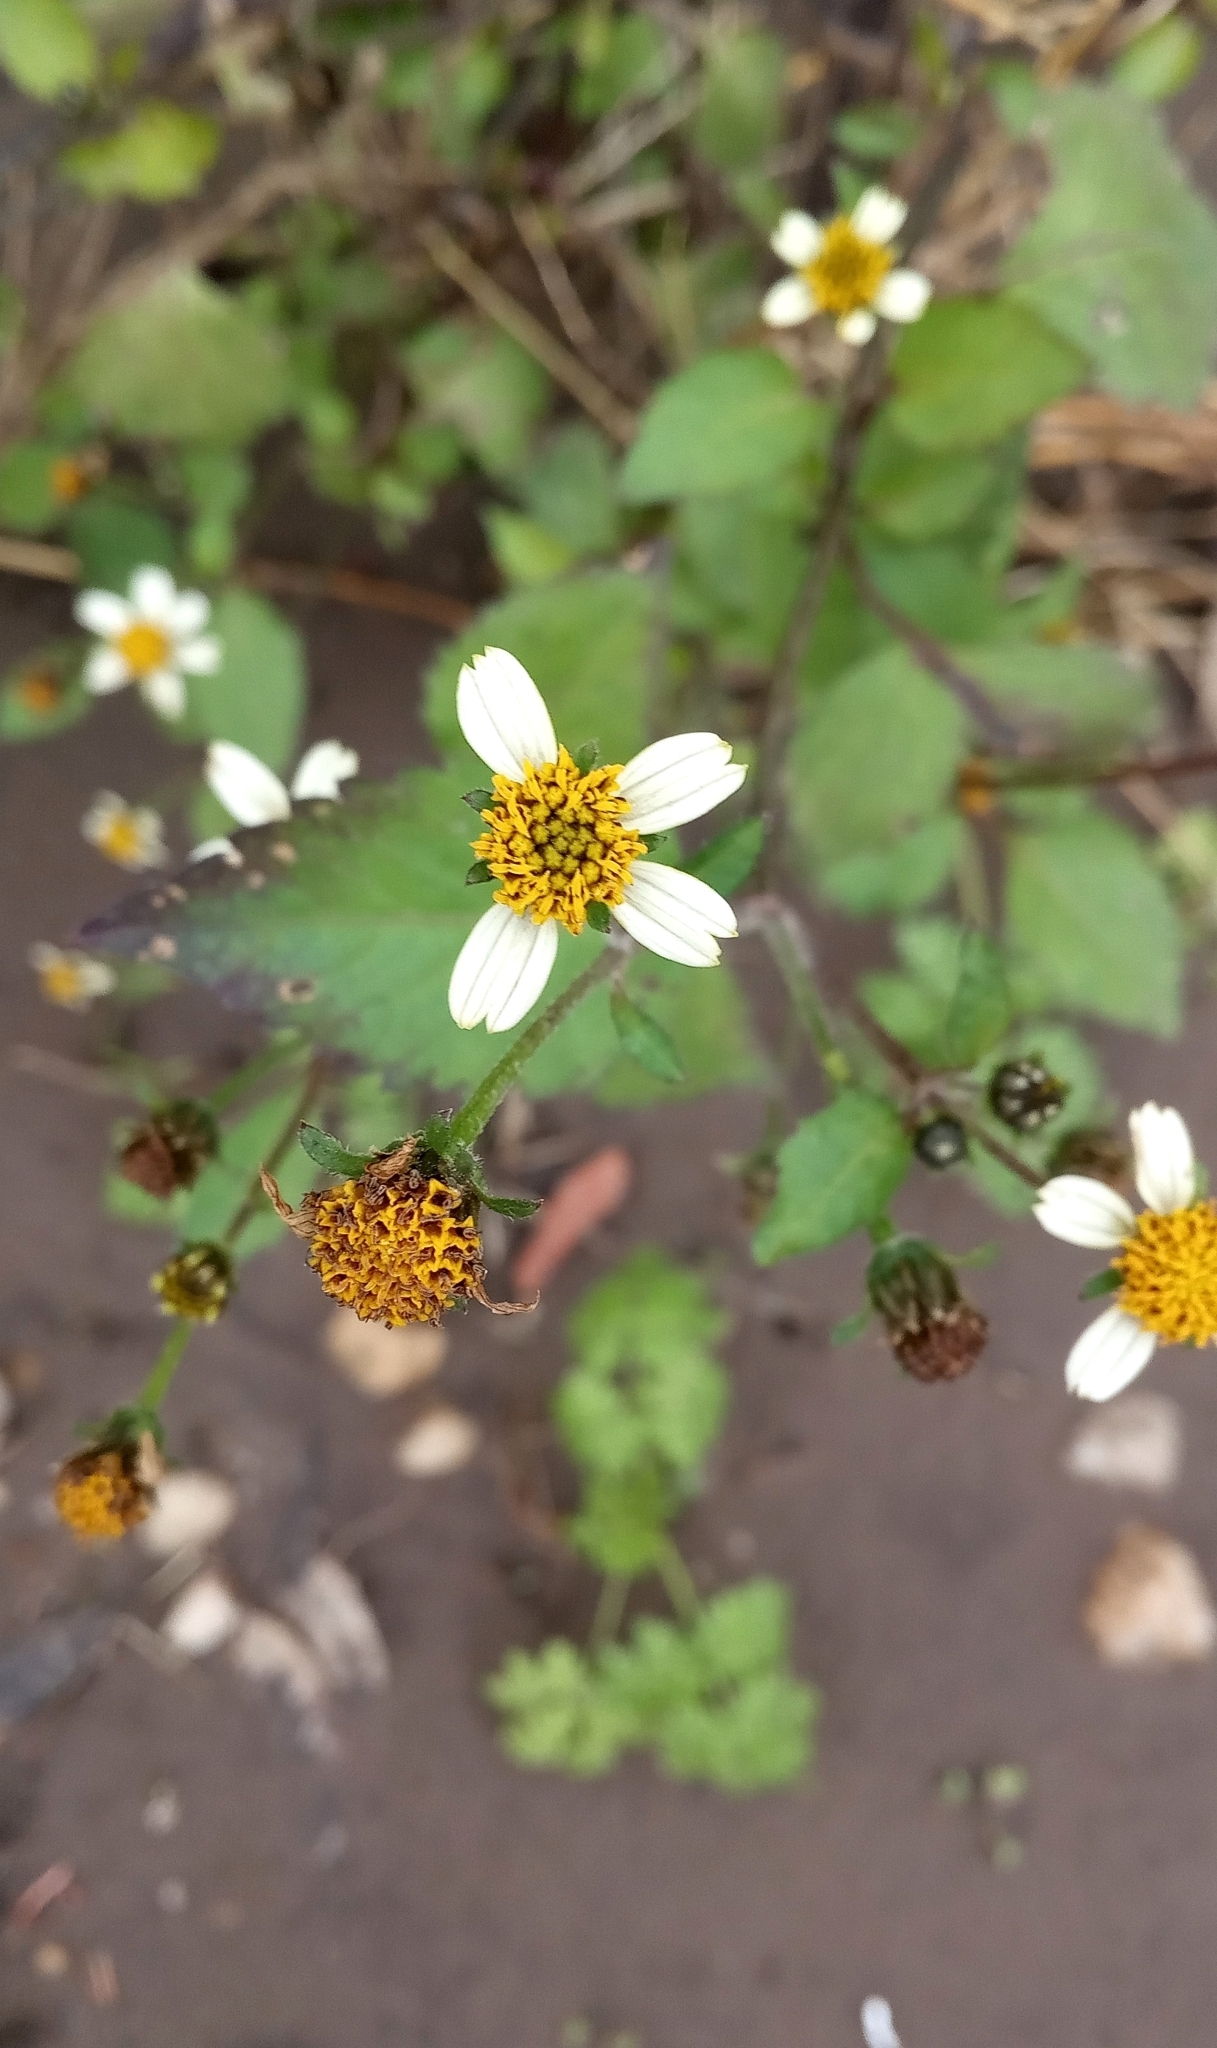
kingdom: Plantae
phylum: Tracheophyta
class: Magnoliopsida
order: Asterales
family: Asteraceae
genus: Bidens
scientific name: Bidens pilosa
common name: Black-jack
